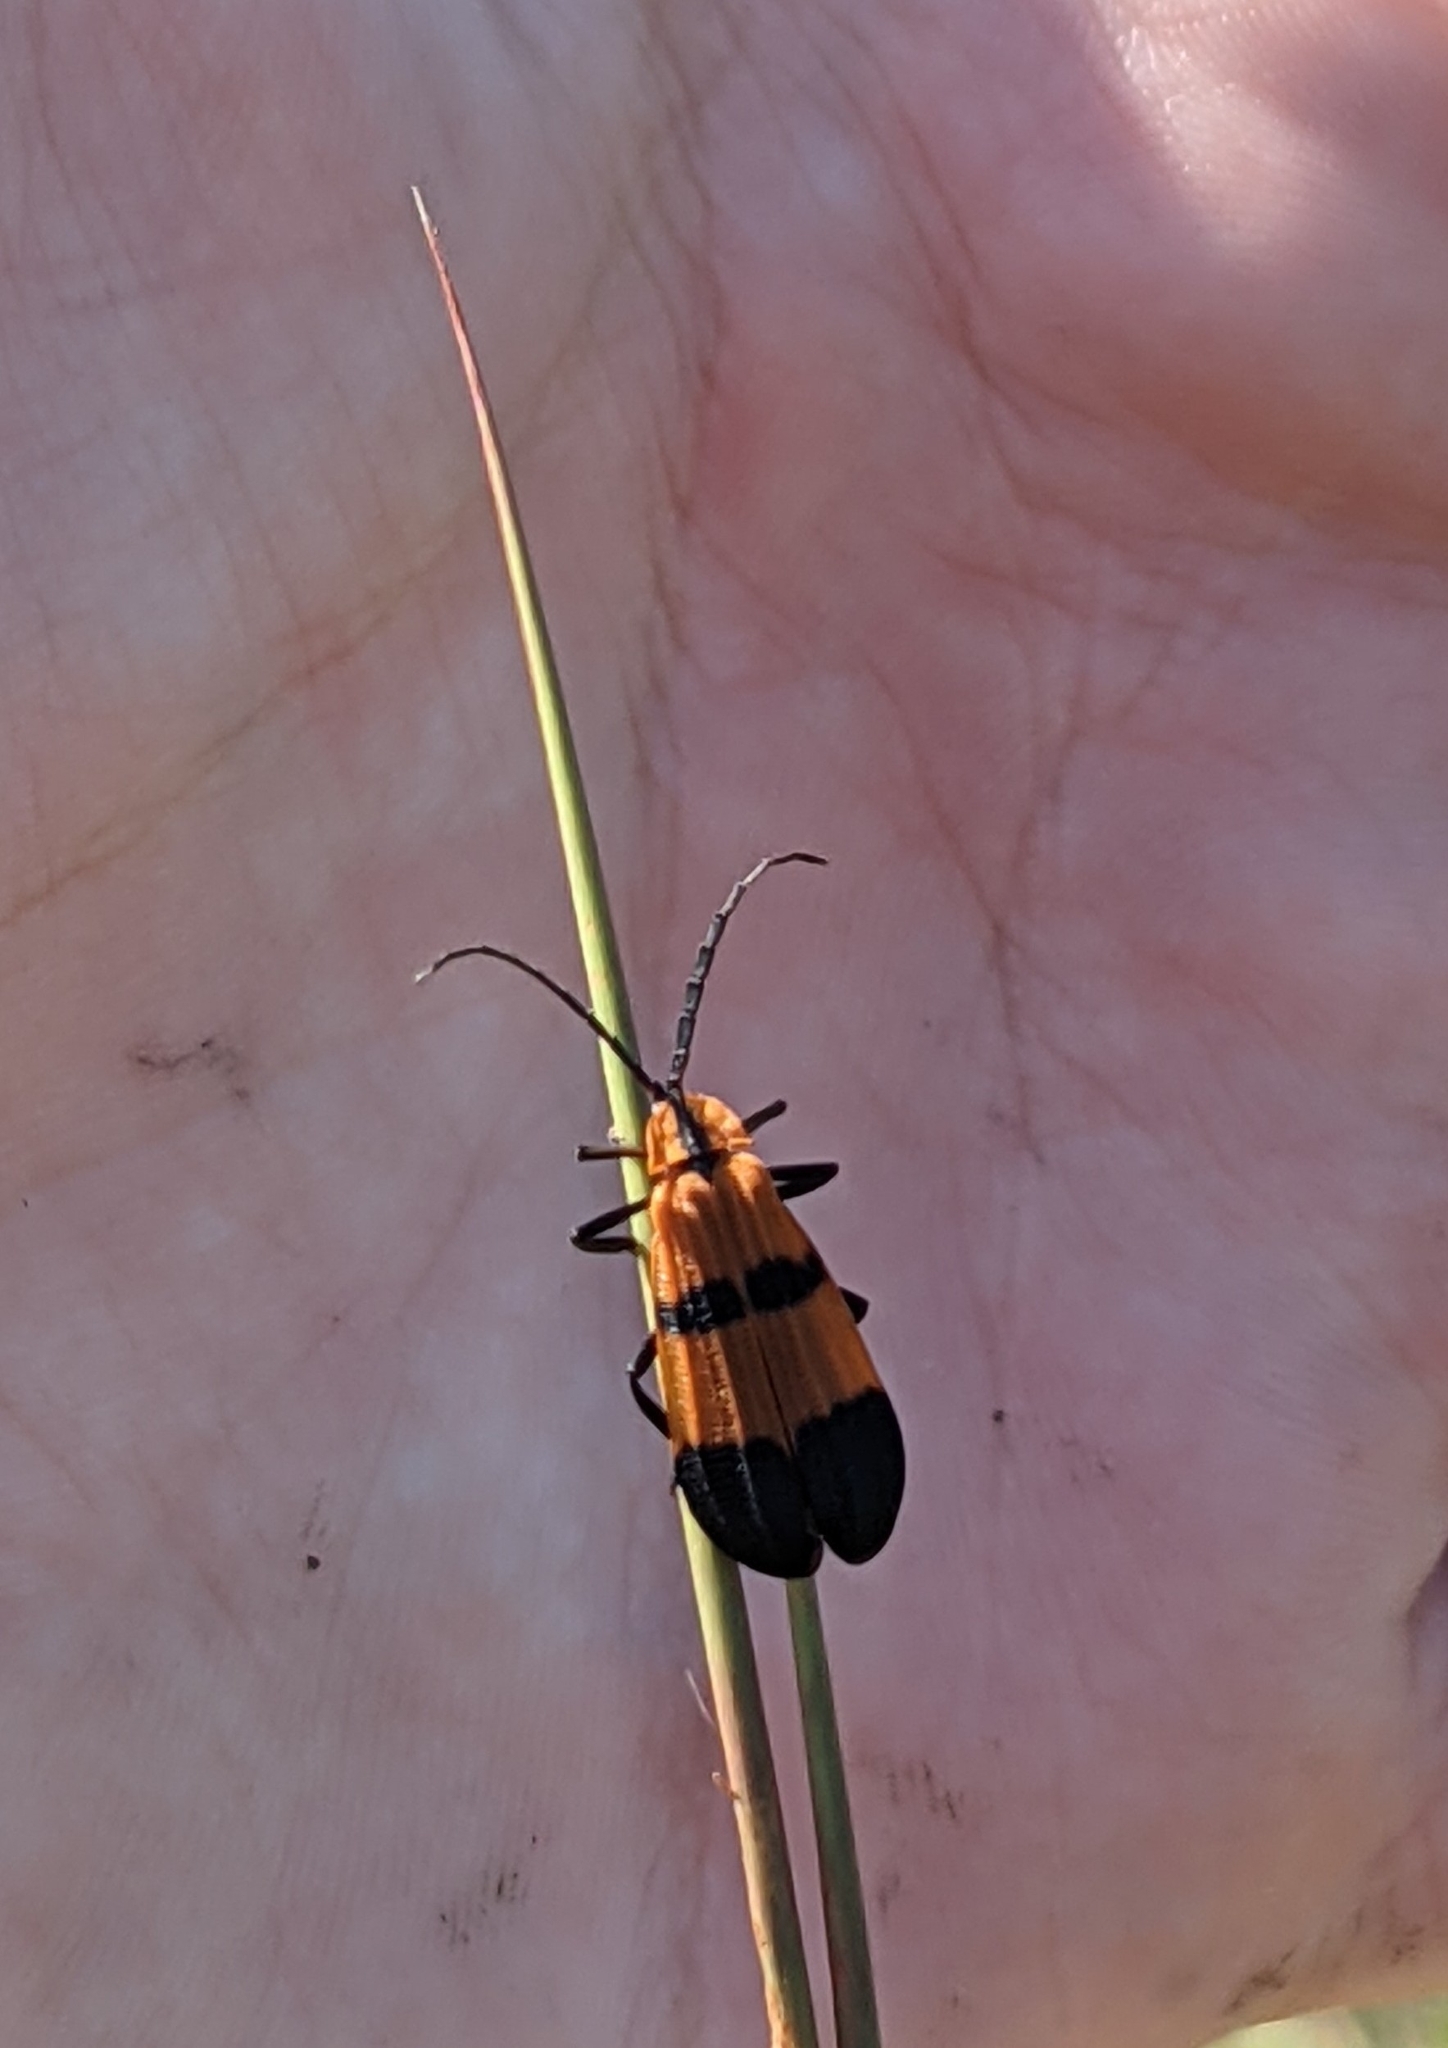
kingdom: Animalia
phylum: Arthropoda
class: Insecta
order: Coleoptera
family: Lycidae
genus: Calopteron
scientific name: Calopteron reticulatum
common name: Banded net-winged beetle
